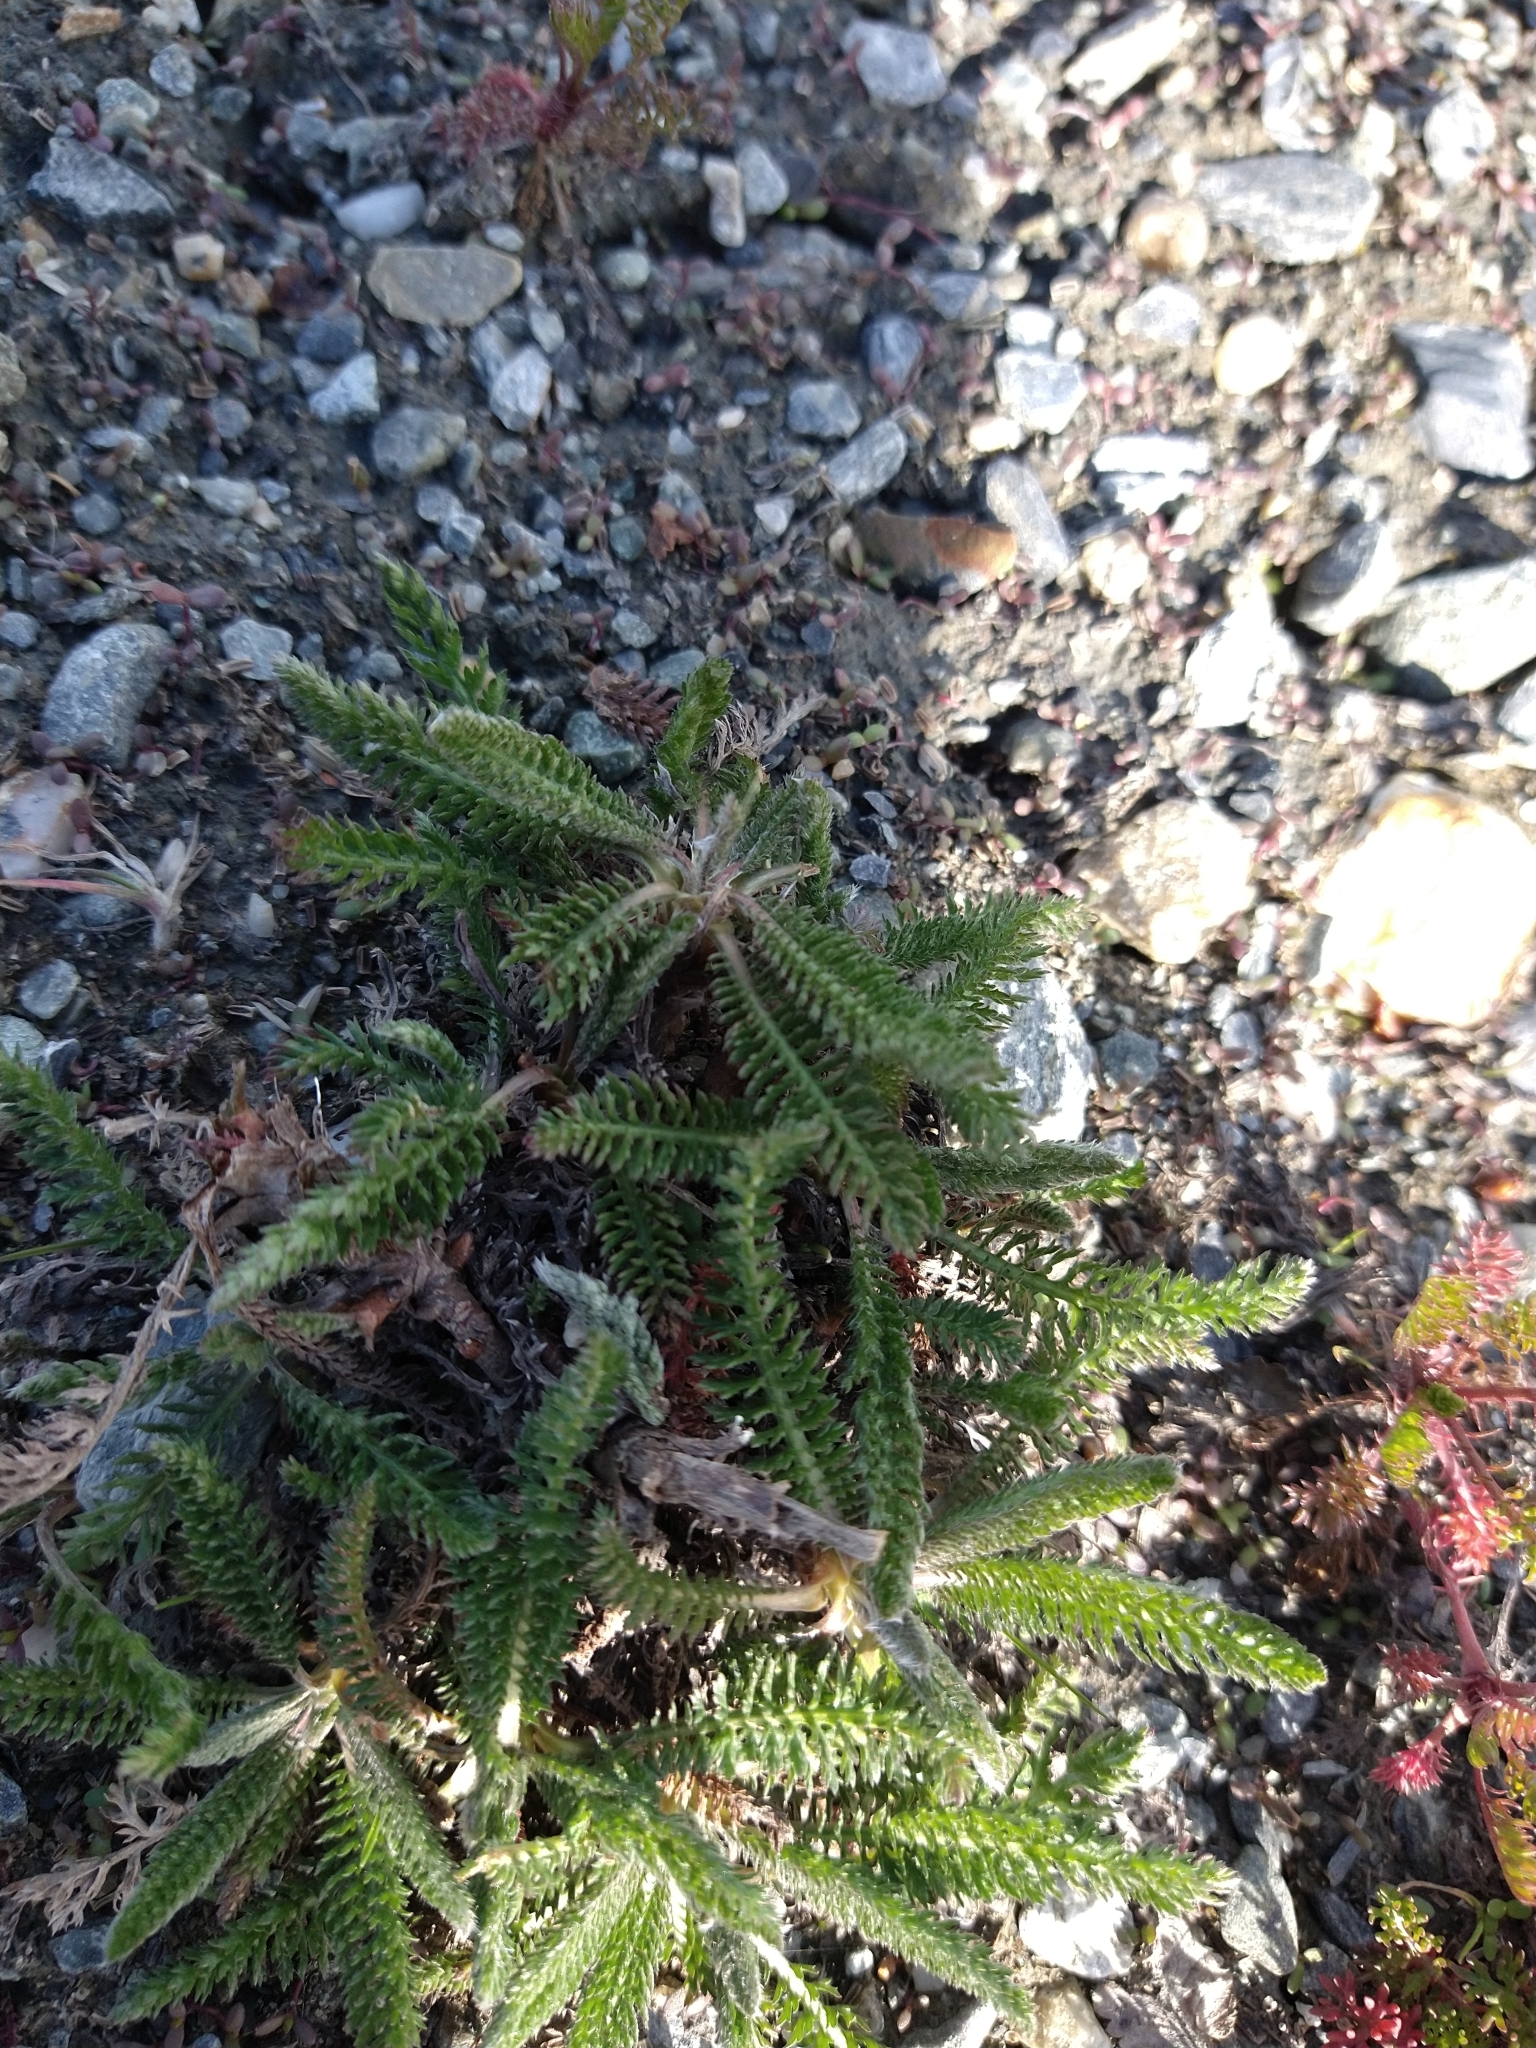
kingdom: Plantae
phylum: Tracheophyta
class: Magnoliopsida
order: Asterales
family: Asteraceae
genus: Achillea
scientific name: Achillea millefolium
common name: Yarrow
